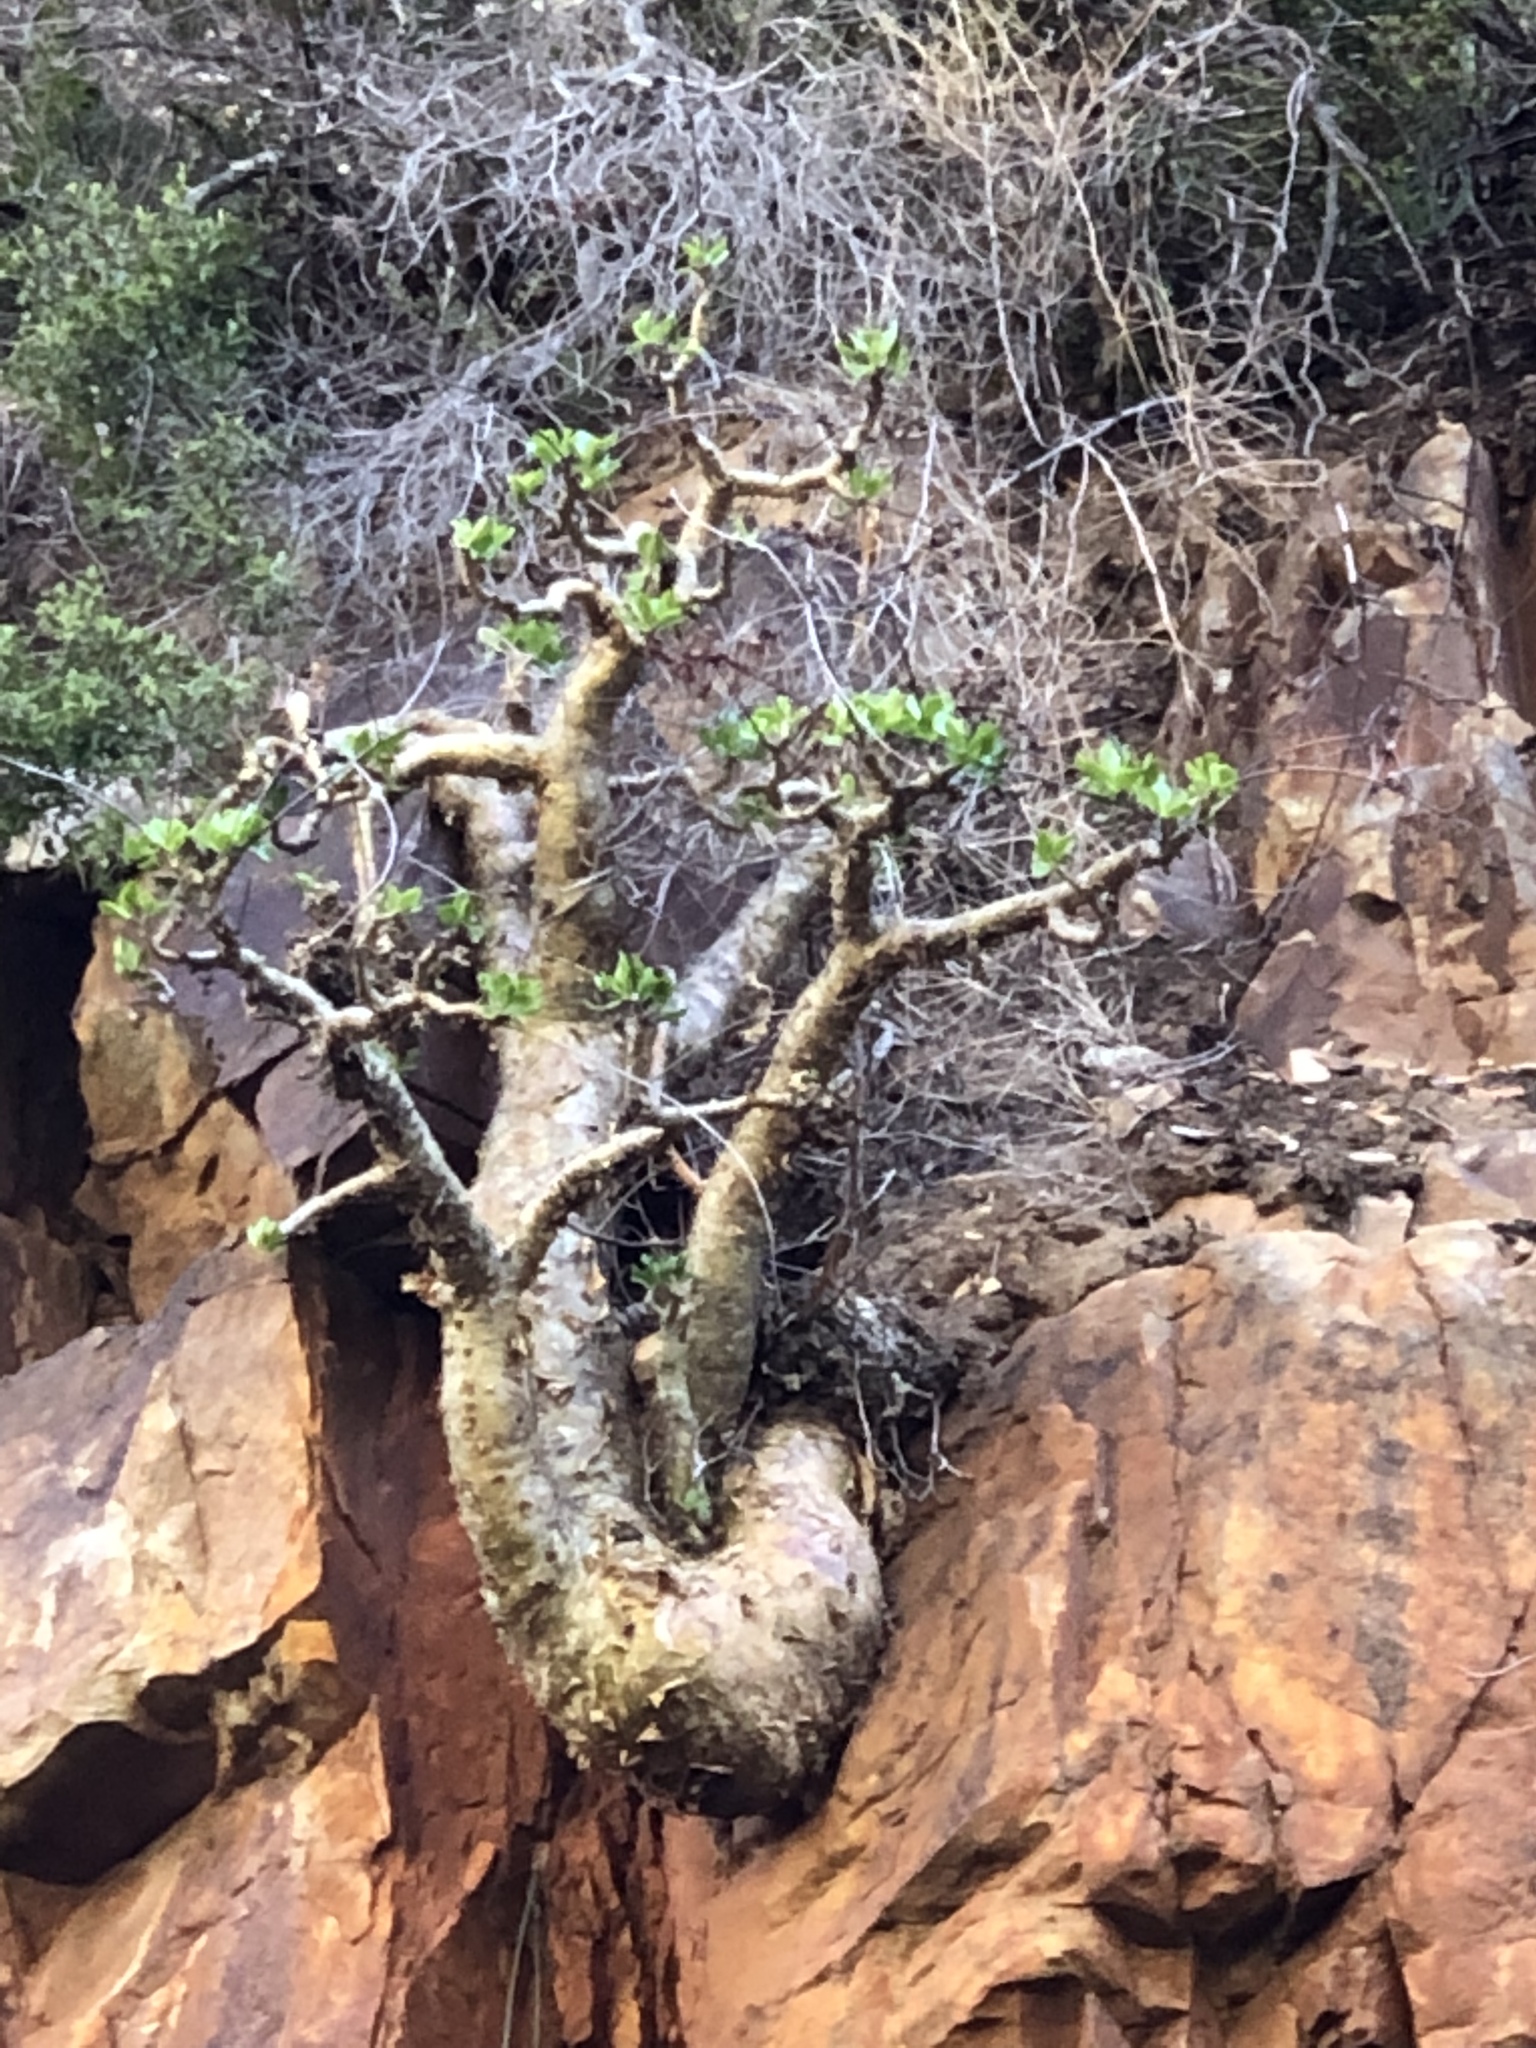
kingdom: Plantae
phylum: Tracheophyta
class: Magnoliopsida
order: Saxifragales
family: Crassulaceae
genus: Tylecodon
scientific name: Tylecodon paniculatus
